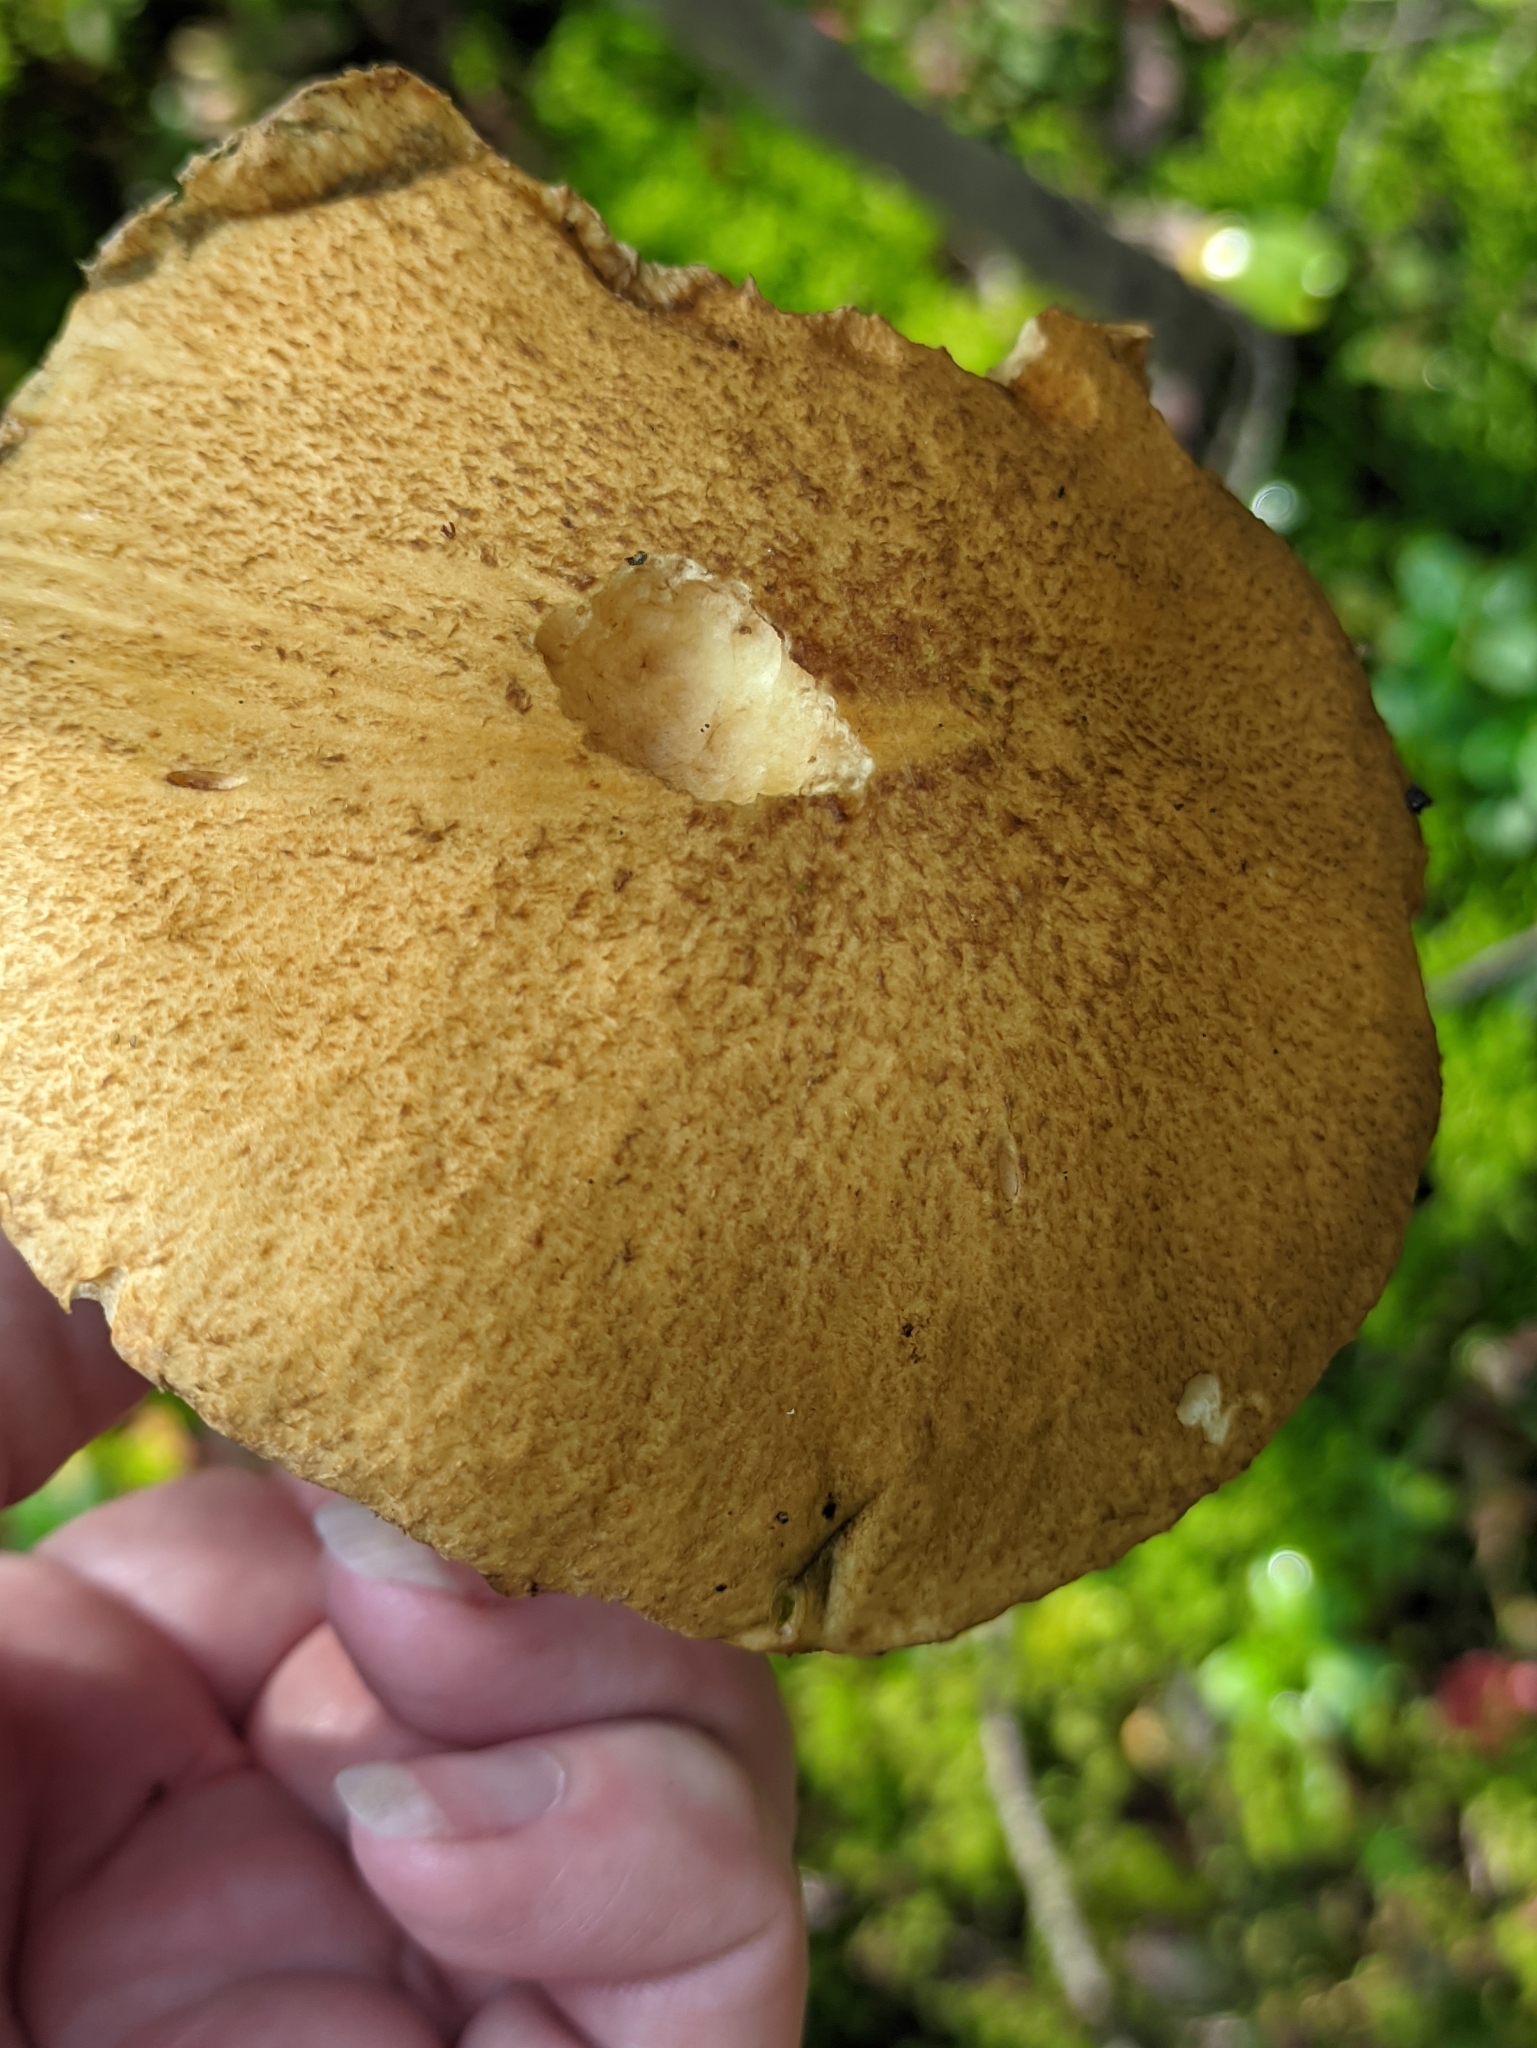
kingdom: Fungi
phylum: Basidiomycota
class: Agaricomycetes
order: Boletales
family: Suillaceae
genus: Suillus
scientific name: Suillus variegatus
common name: Velvet bolete
